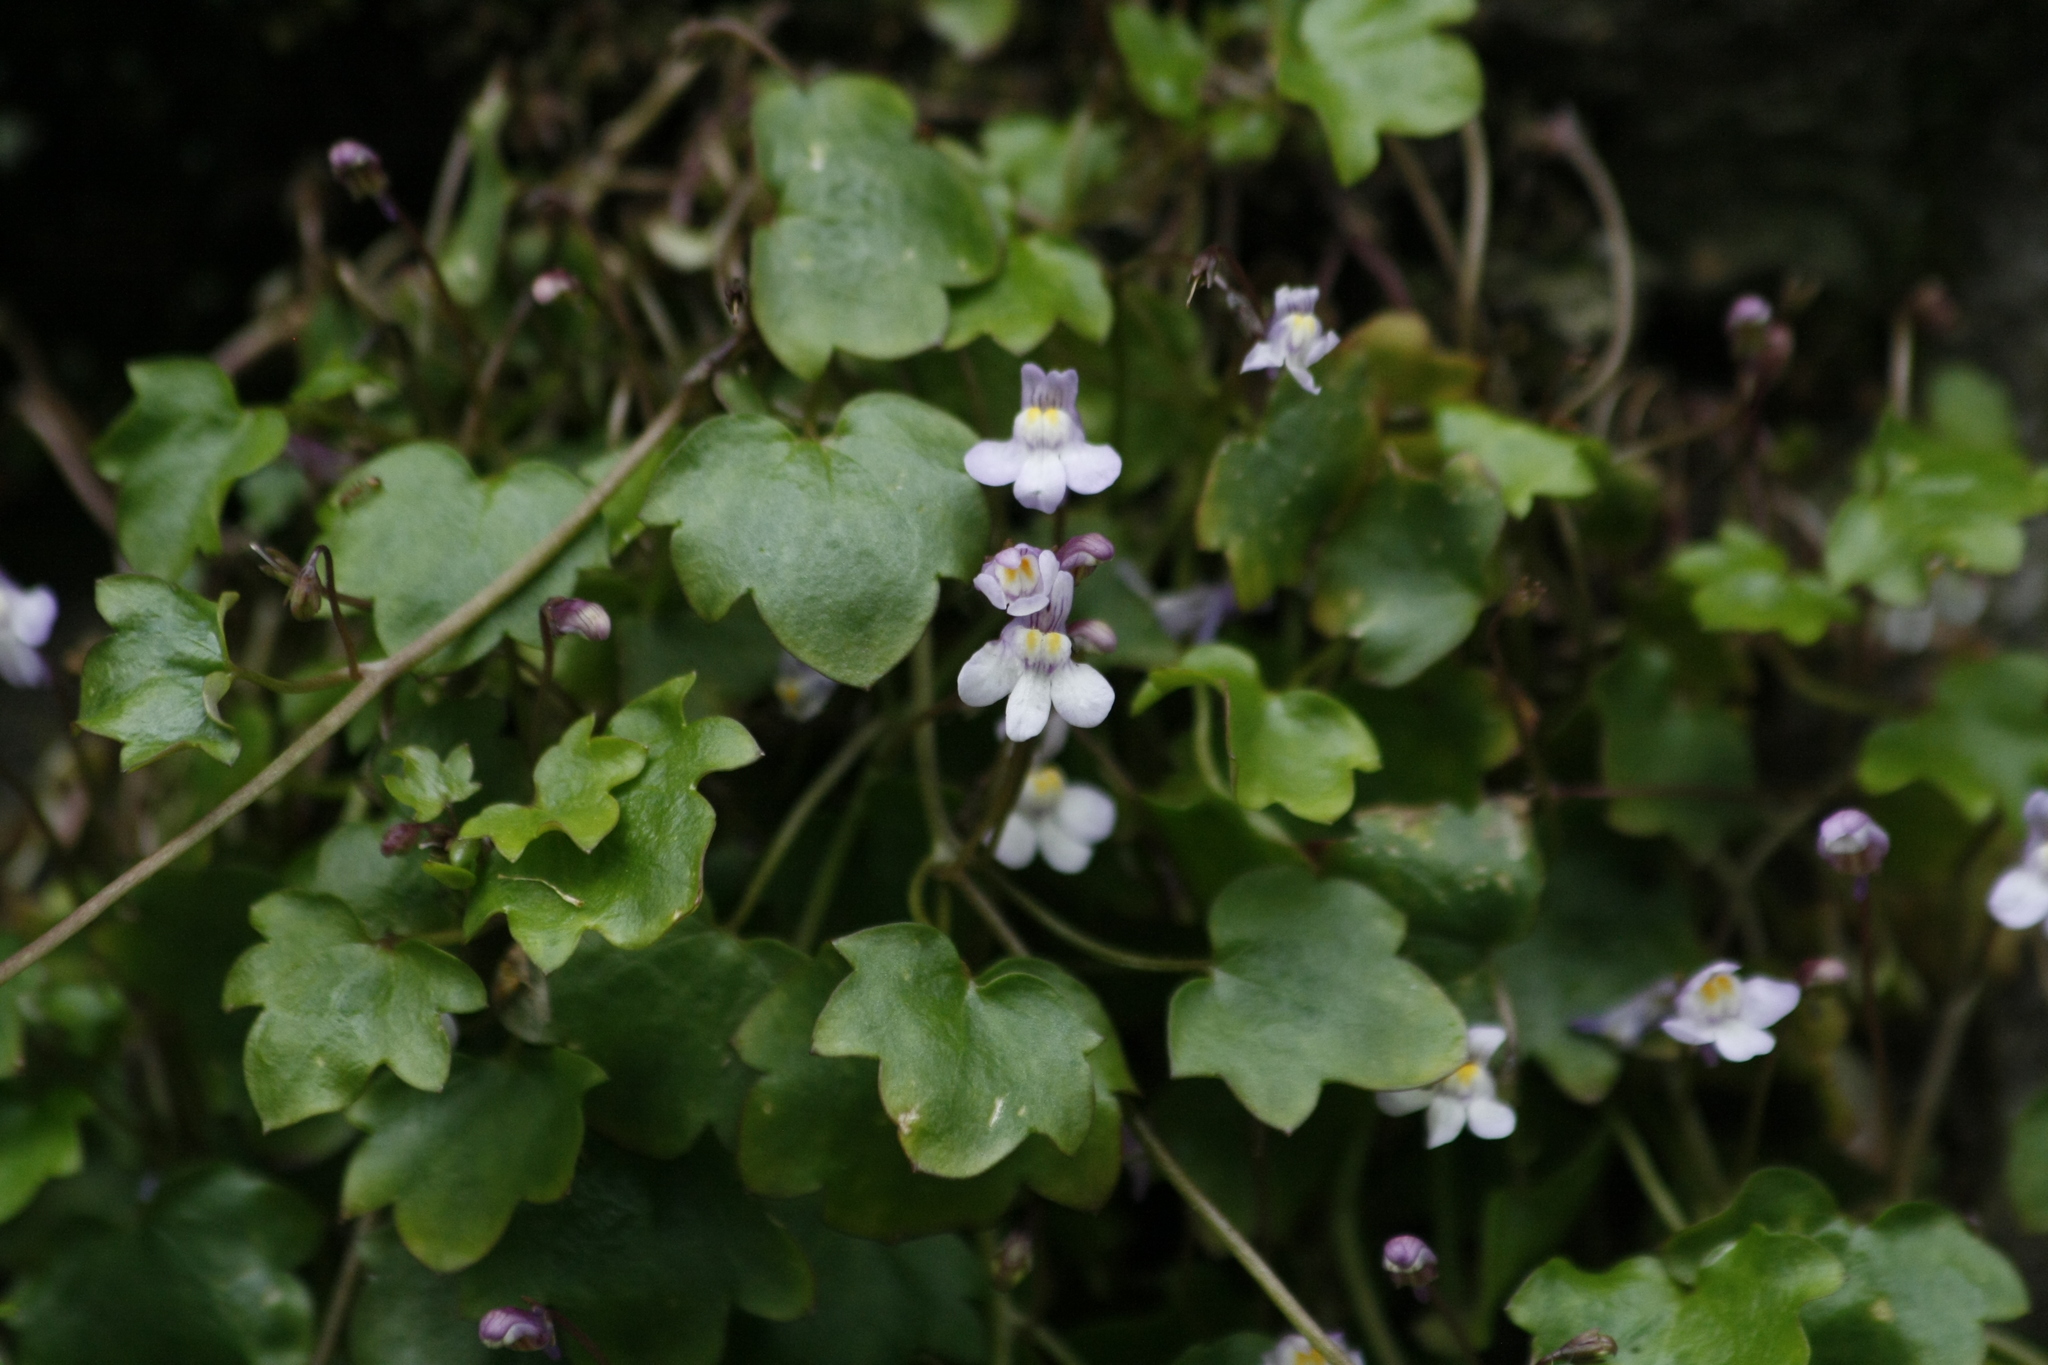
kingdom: Plantae
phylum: Tracheophyta
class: Magnoliopsida
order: Lamiales
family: Plantaginaceae
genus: Cymbalaria
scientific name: Cymbalaria muralis
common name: Ivy-leaved toadflax
